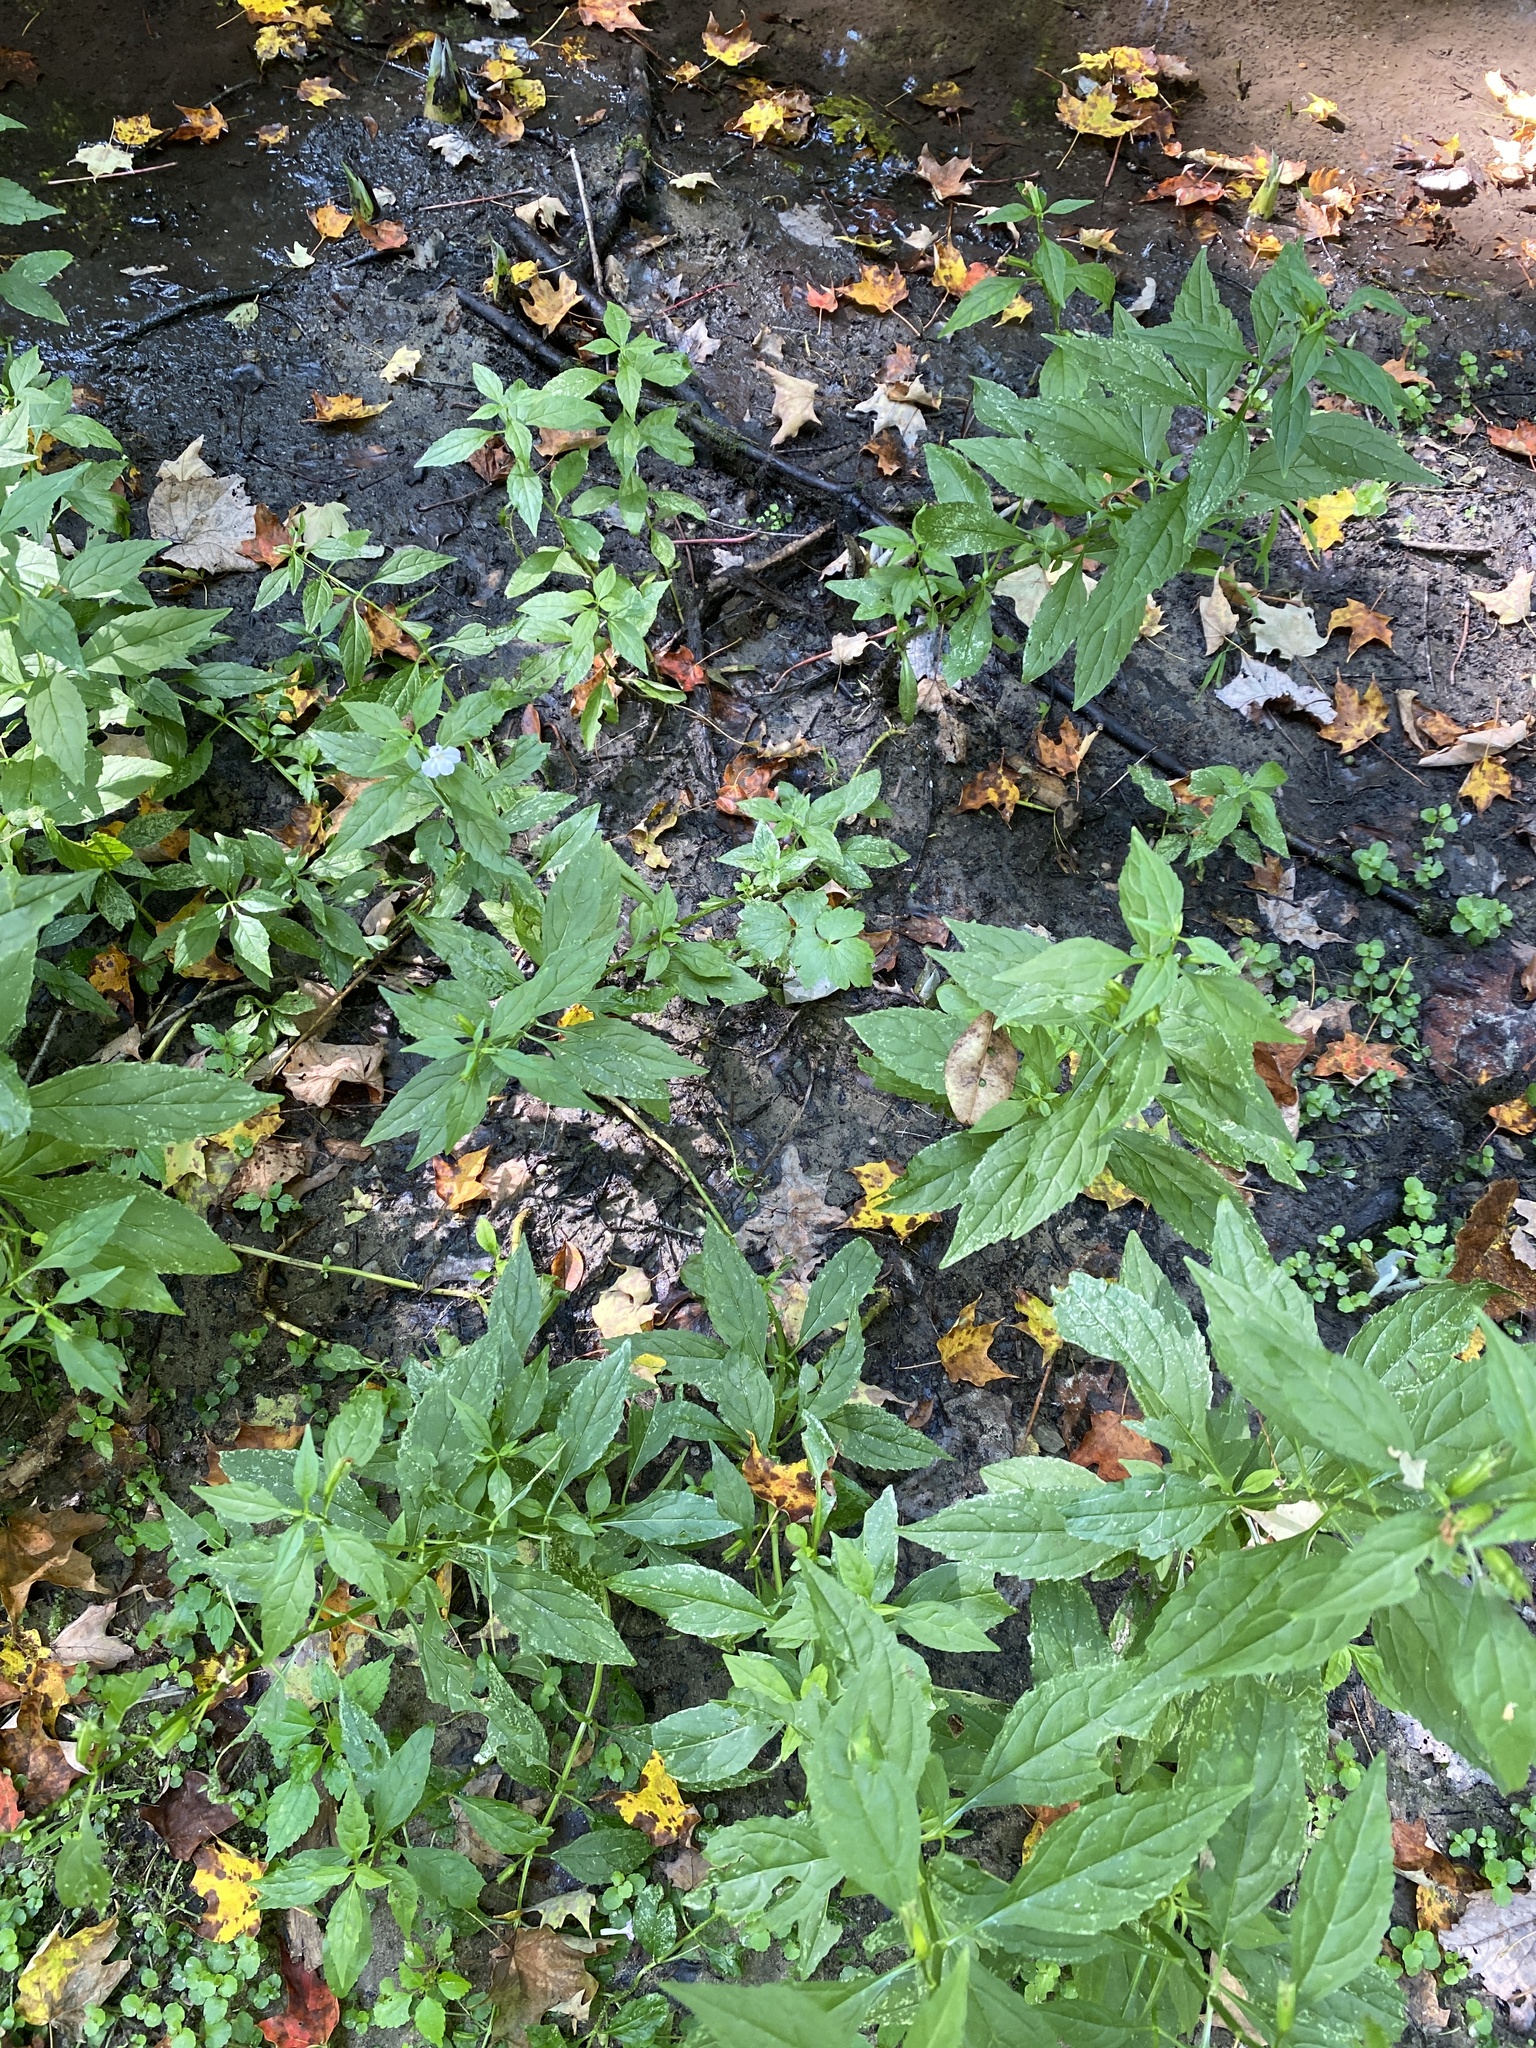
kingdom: Plantae
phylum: Tracheophyta
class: Magnoliopsida
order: Lamiales
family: Phrymaceae
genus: Mimulus
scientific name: Mimulus alatus
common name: Sharp-wing monkey-flower
